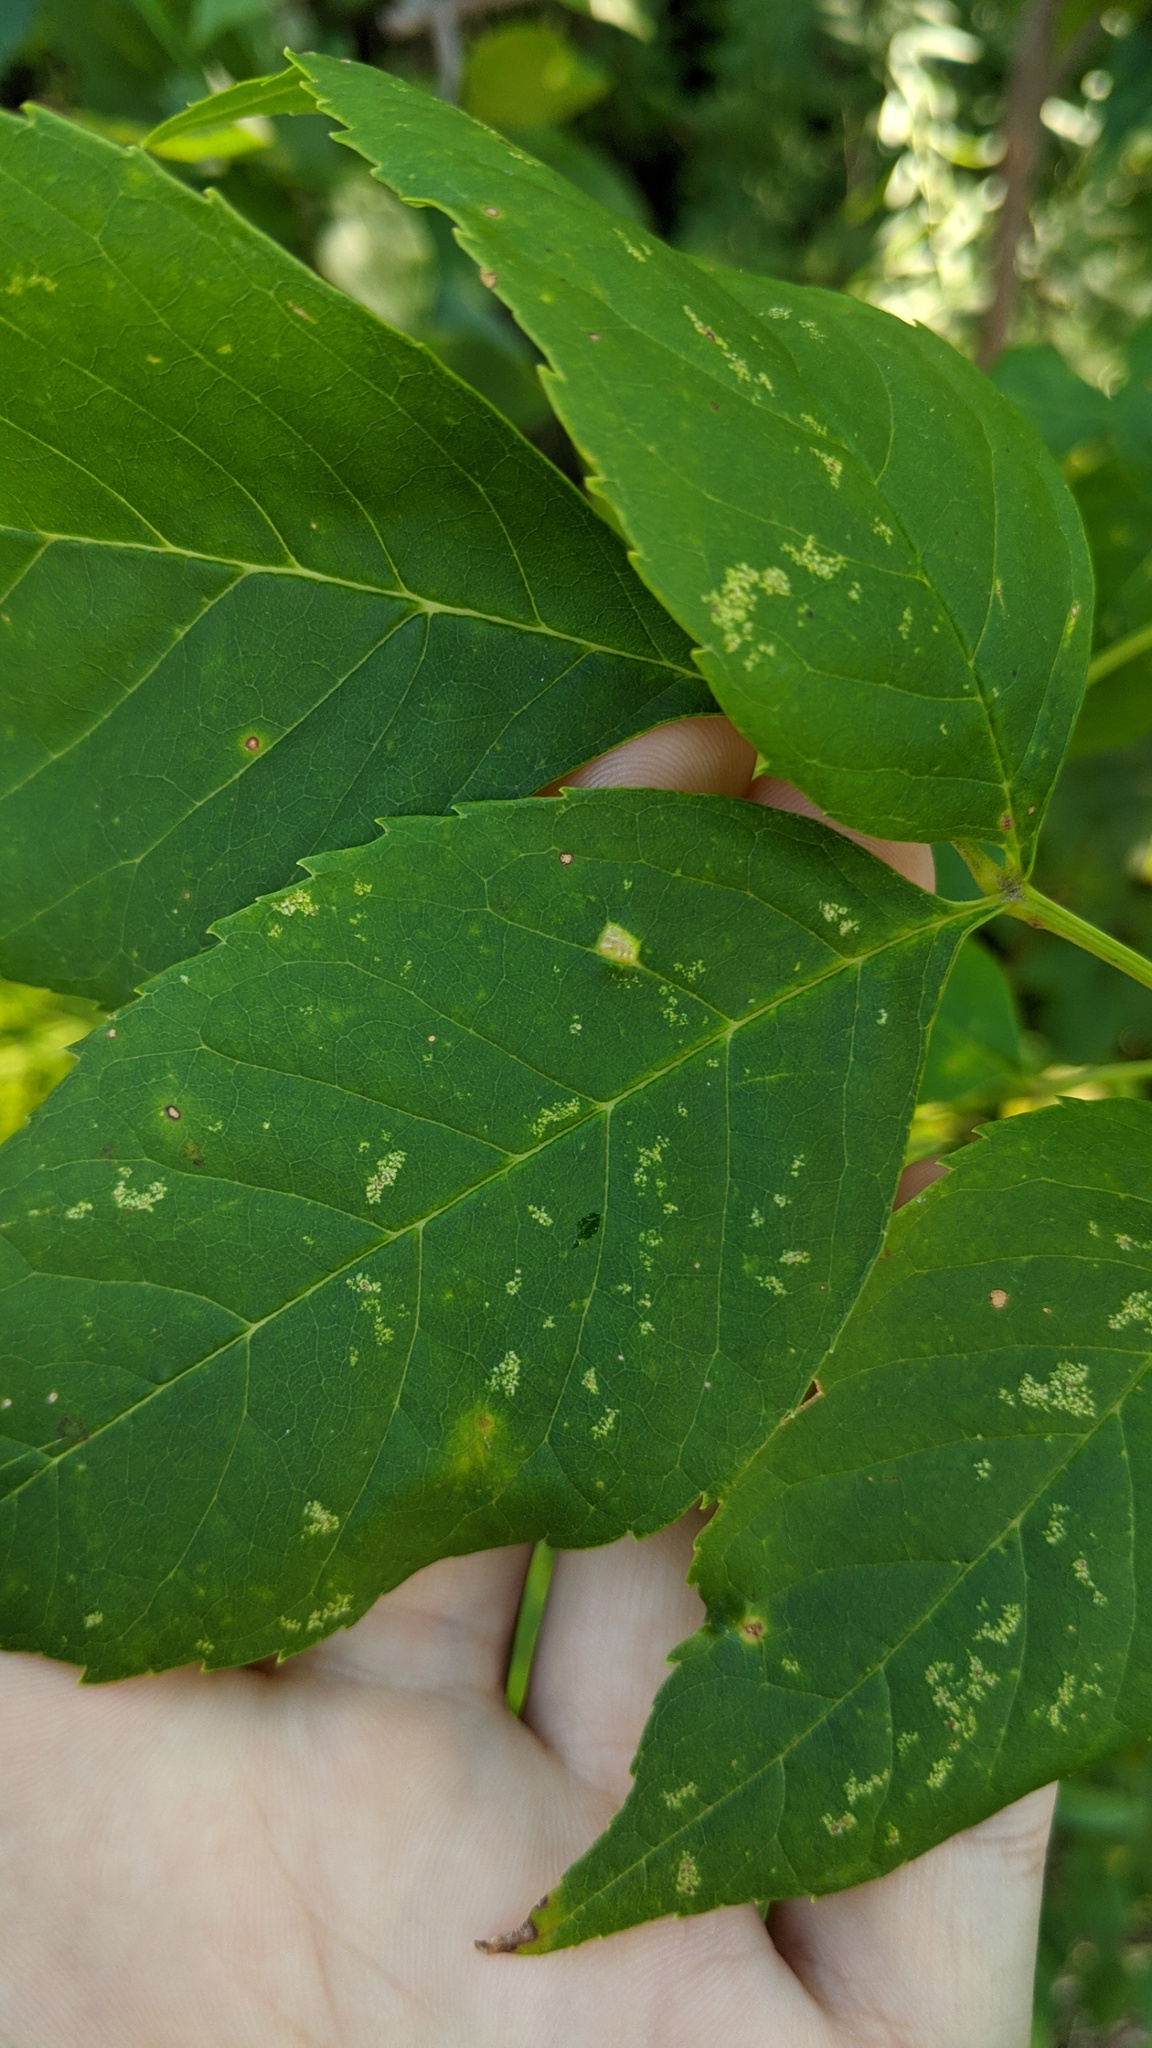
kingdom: Animalia
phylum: Arthropoda
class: Arachnida
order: Trombidiformes
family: Eriophyidae
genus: Aceria
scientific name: Aceria fraxinicola
